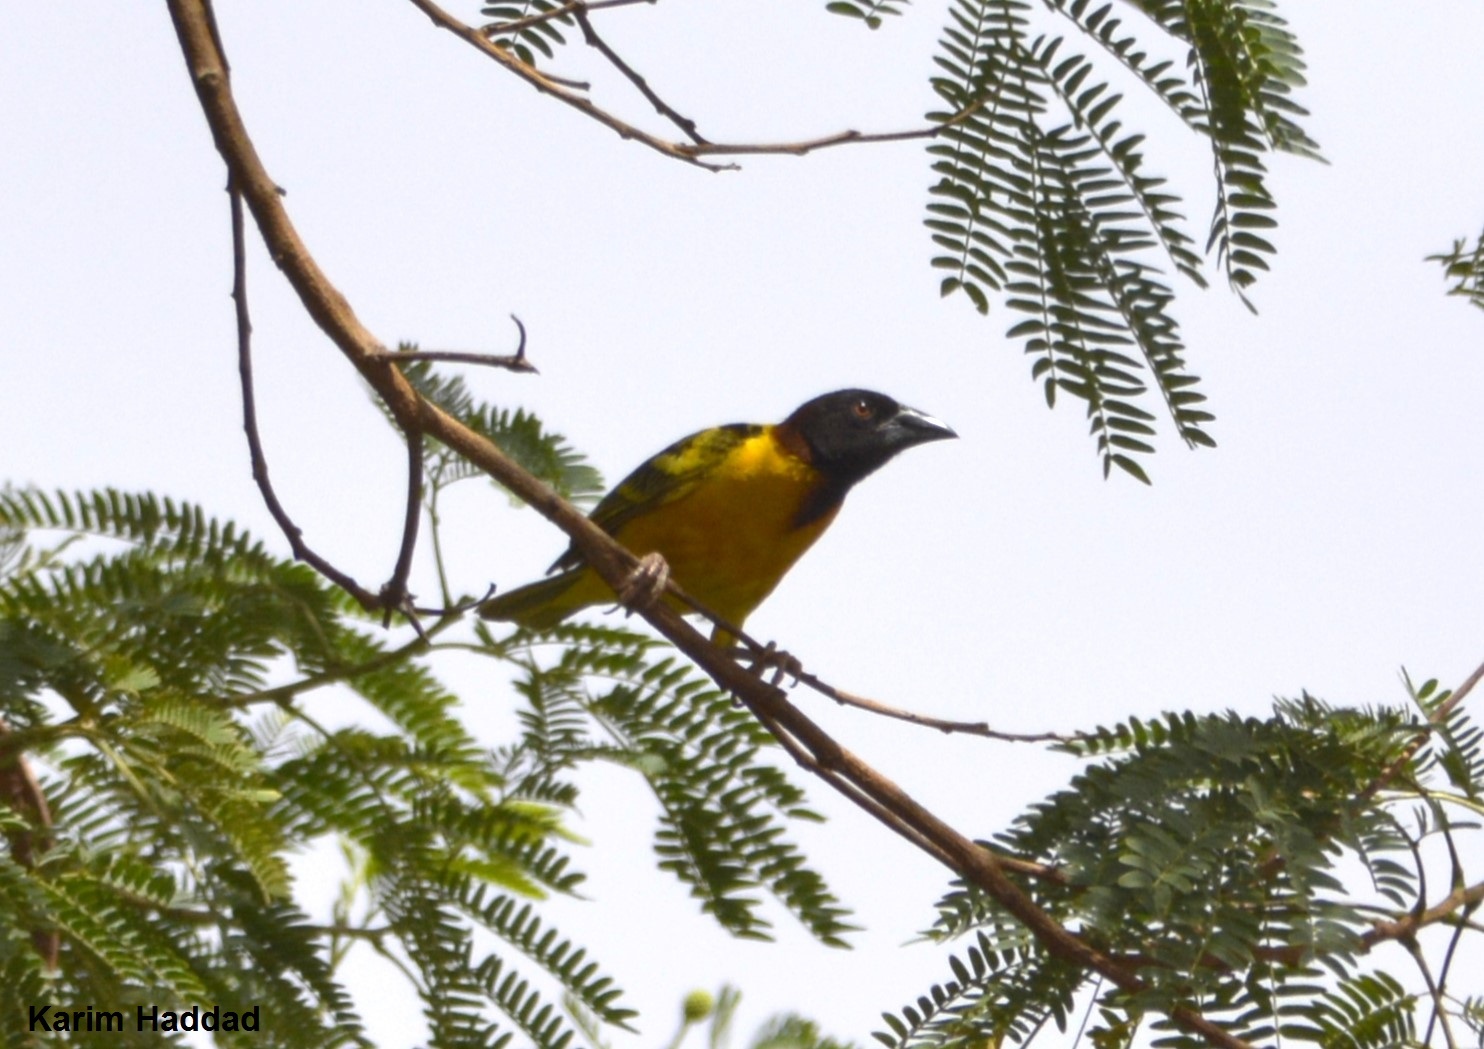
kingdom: Animalia
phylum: Chordata
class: Aves
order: Passeriformes
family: Ploceidae
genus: Ploceus
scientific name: Ploceus cucullatus
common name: Village weaver
